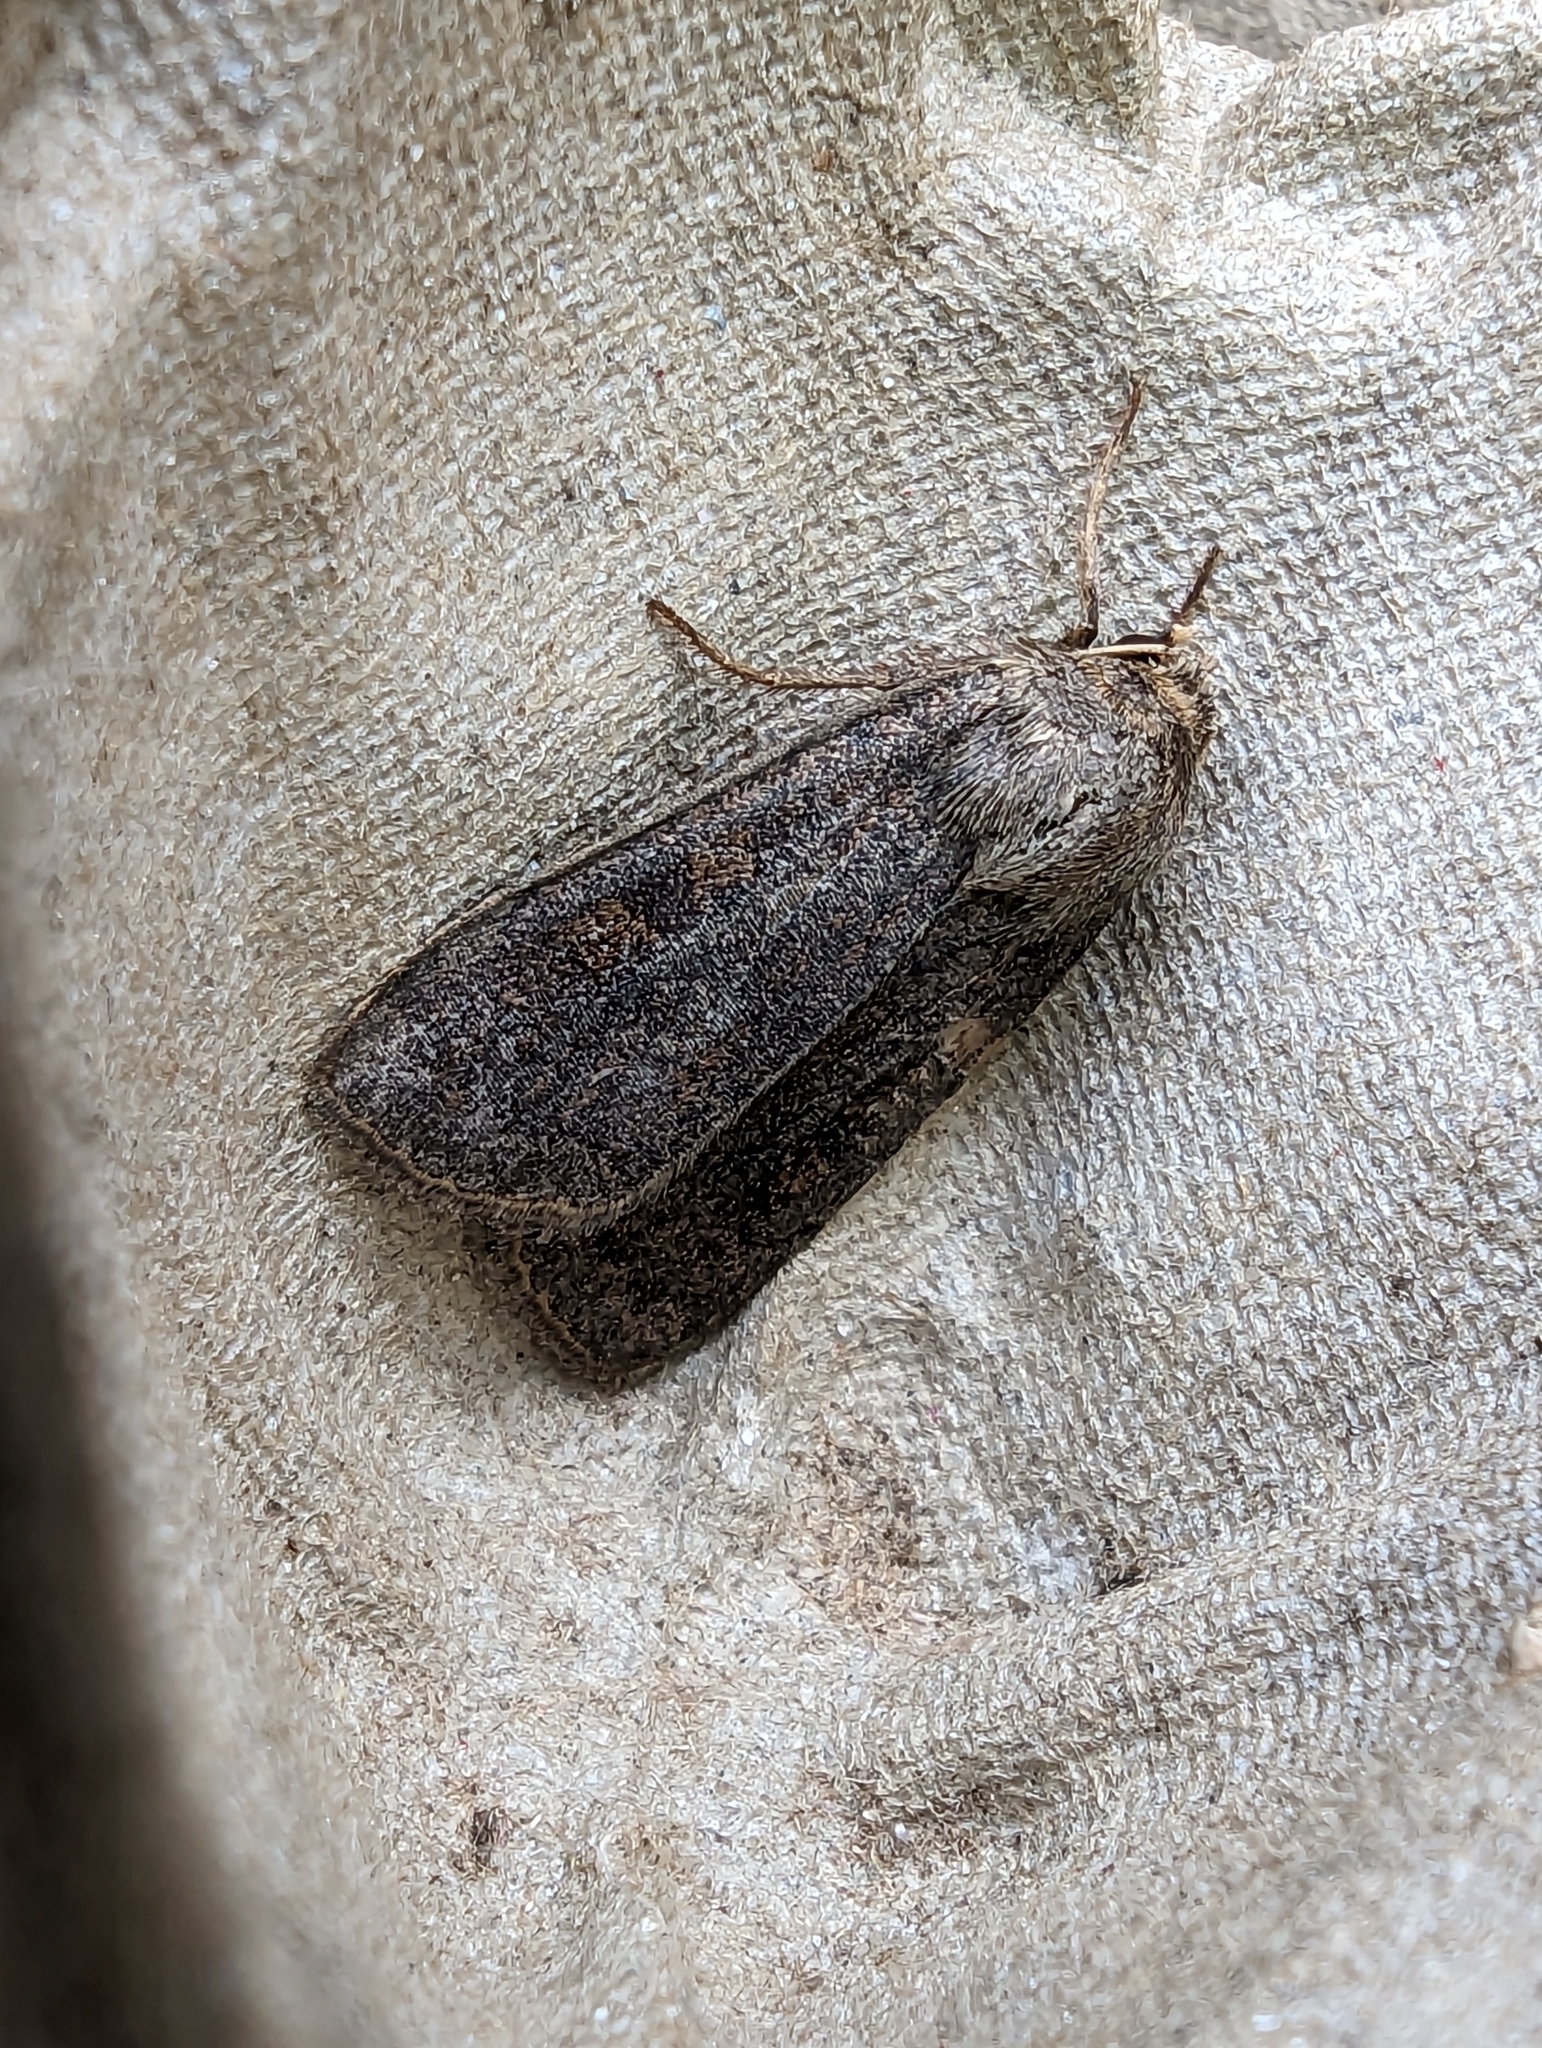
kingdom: Animalia
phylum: Arthropoda
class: Insecta
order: Lepidoptera
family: Noctuidae
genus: Xestia
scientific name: Xestia xanthographa
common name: Square-spot rustic
